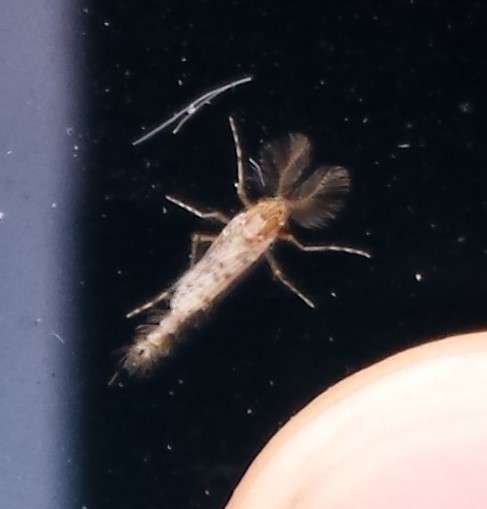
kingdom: Animalia
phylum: Arthropoda
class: Insecta
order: Diptera
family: Chaoboridae
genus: Chaoborus
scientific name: Chaoborus punctipennis
